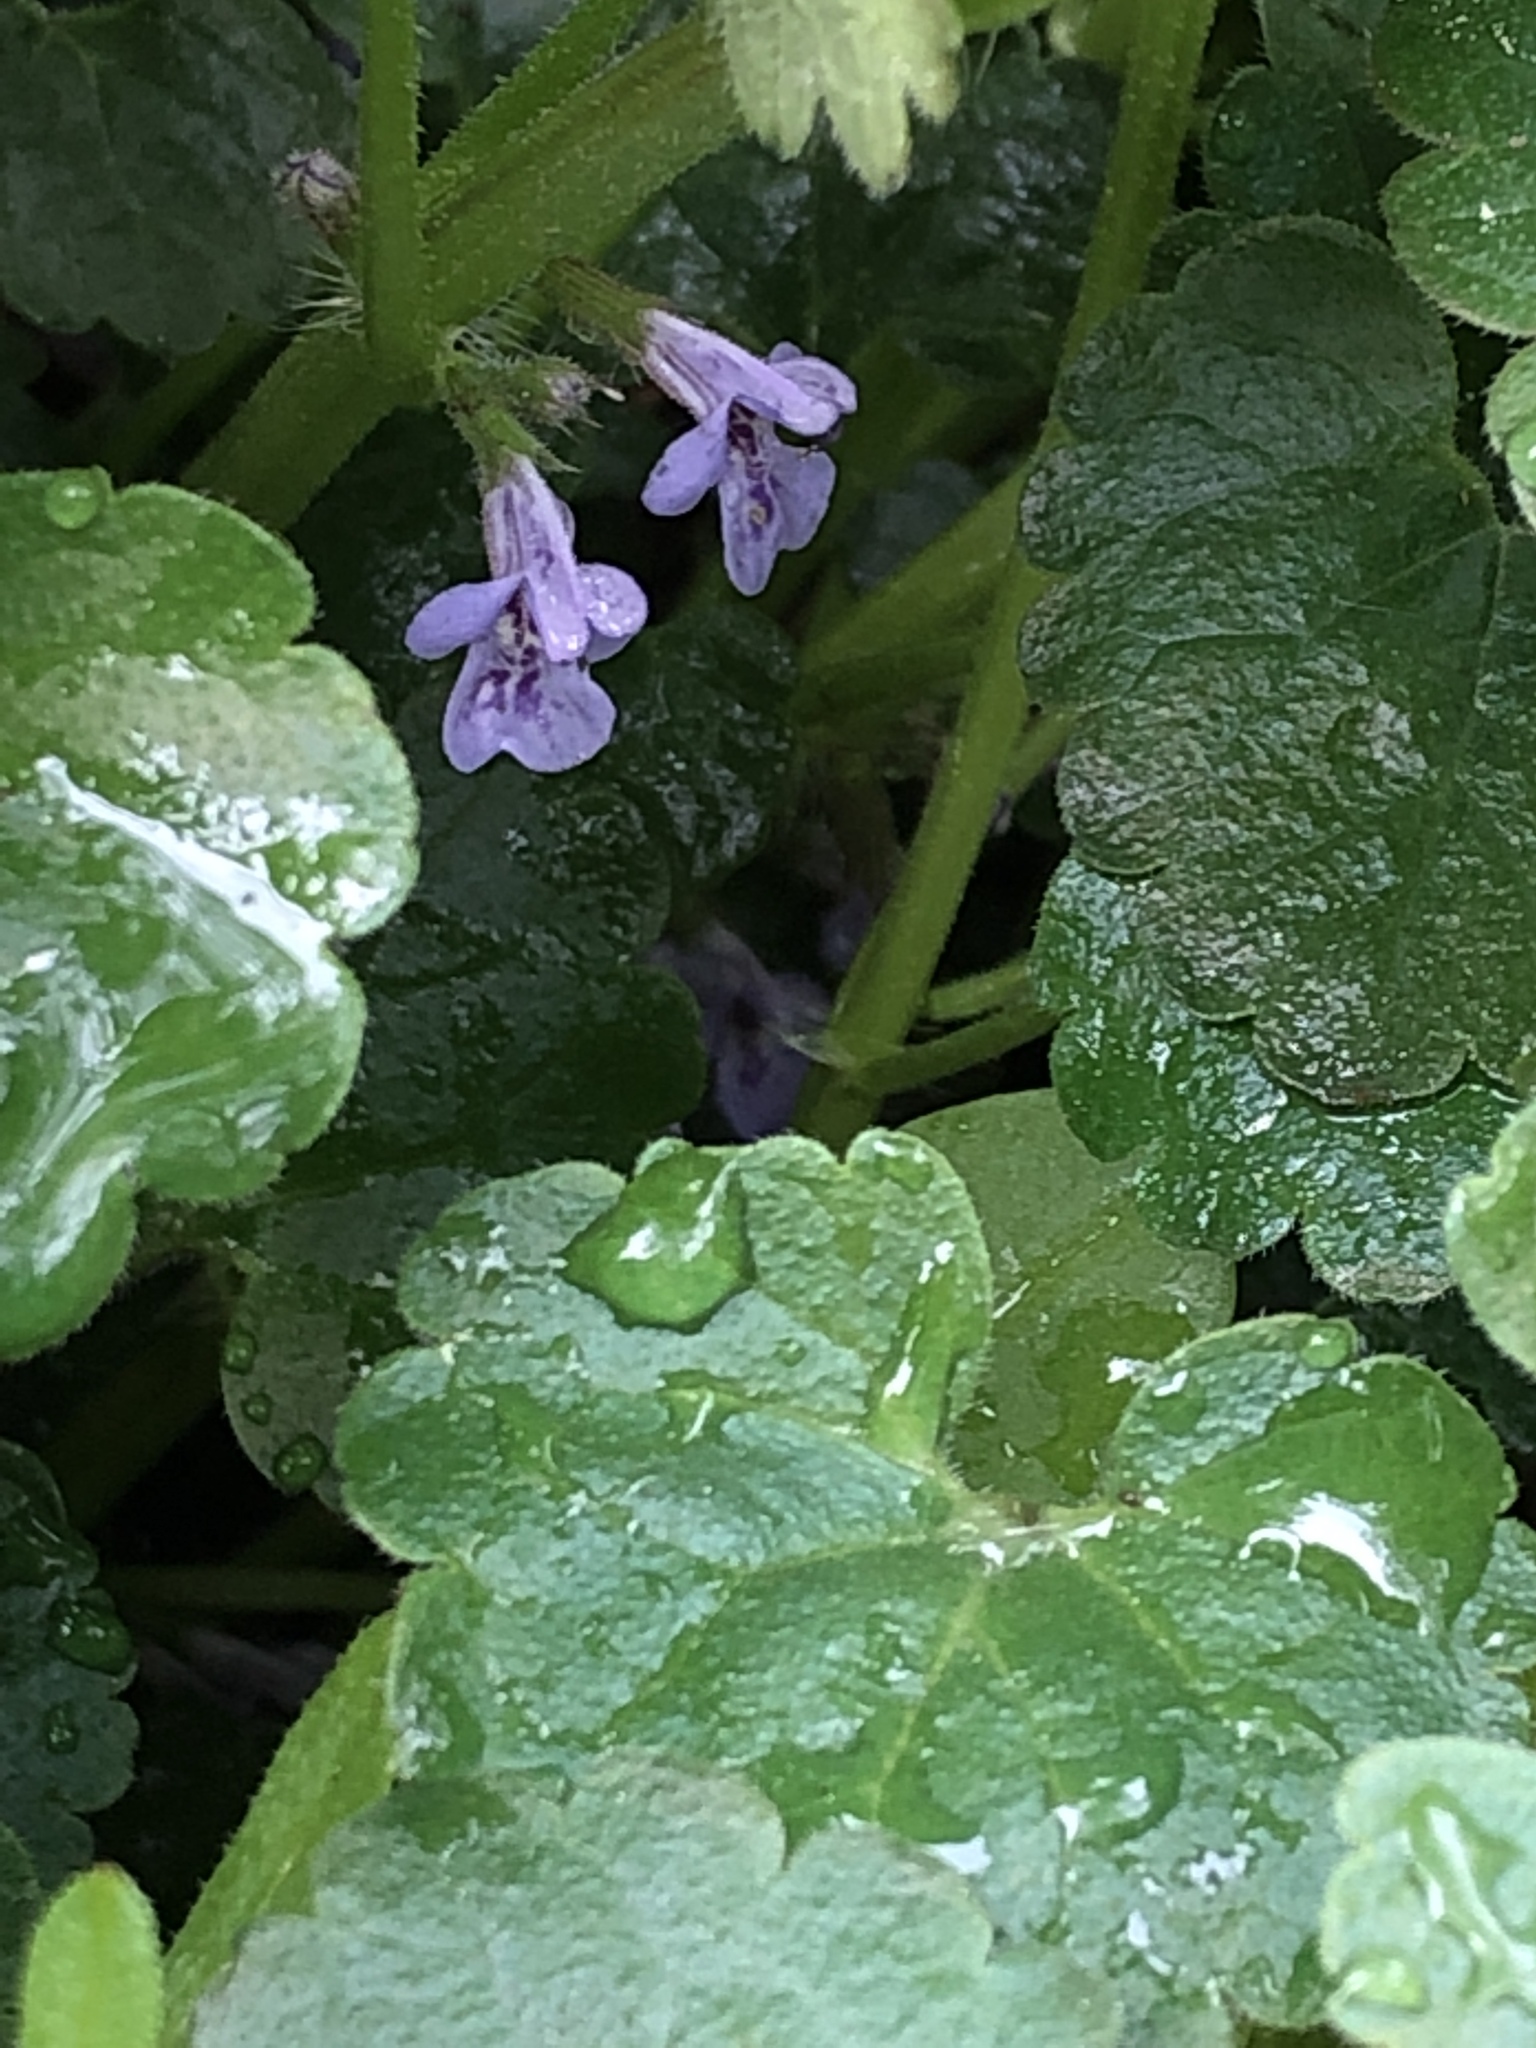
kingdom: Plantae
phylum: Tracheophyta
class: Magnoliopsida
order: Lamiales
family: Lamiaceae
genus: Glechoma
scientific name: Glechoma hederacea
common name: Ground ivy
